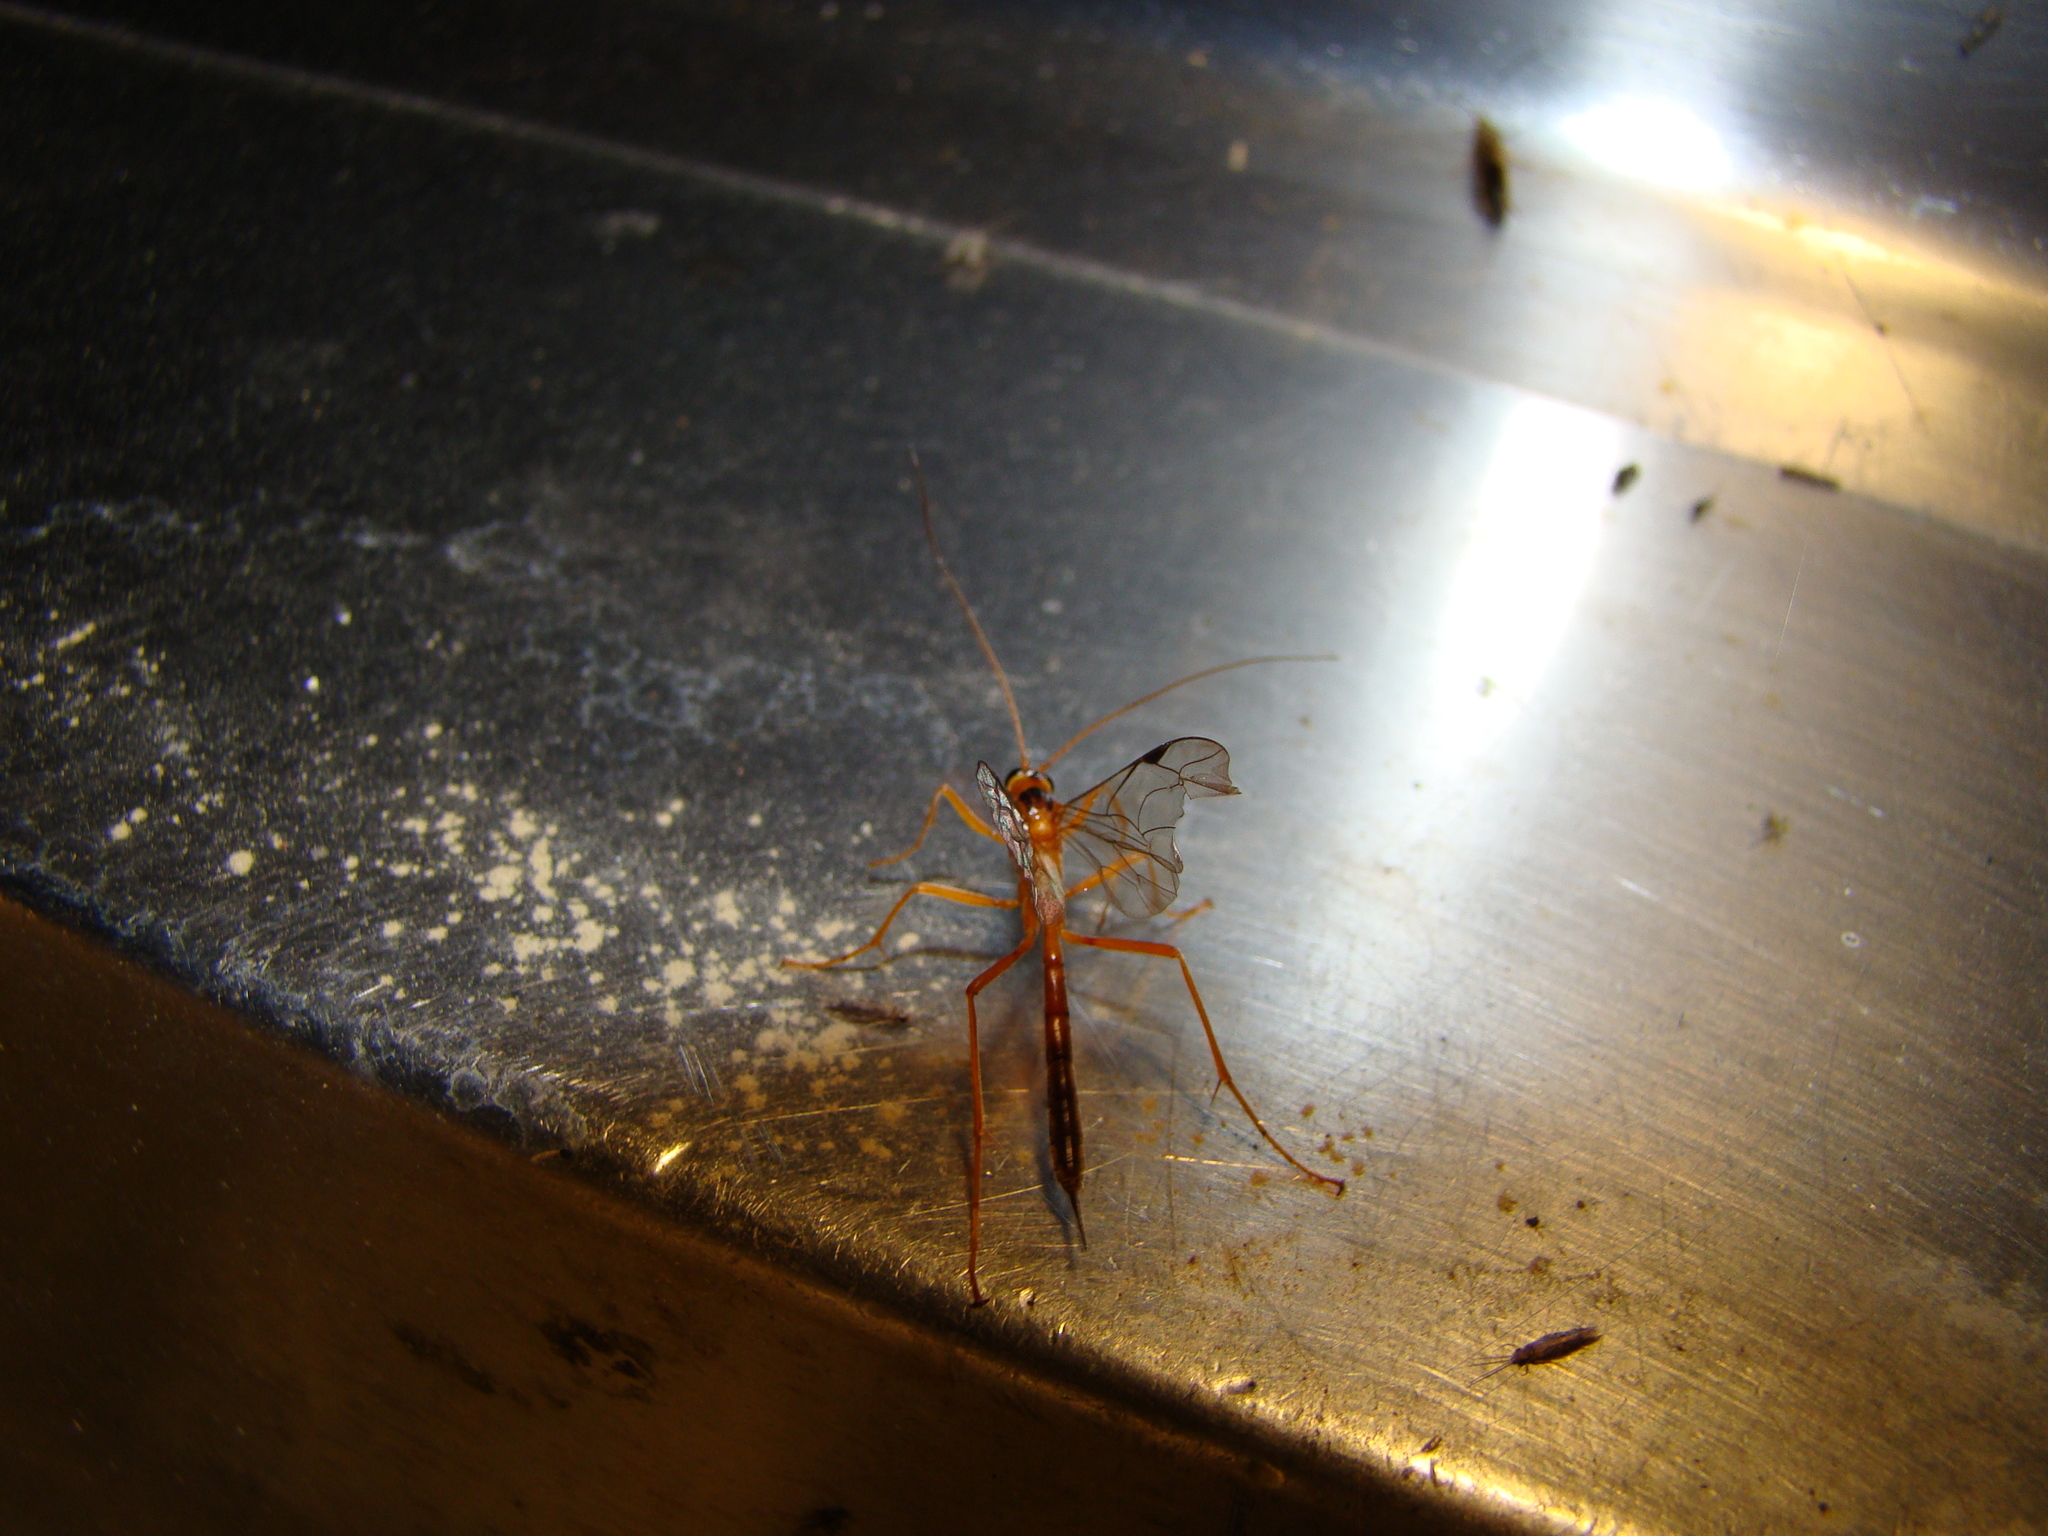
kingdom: Animalia
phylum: Arthropoda
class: Insecta
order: Hymenoptera
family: Ichneumonidae
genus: Netelia
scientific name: Netelia ephippiata
